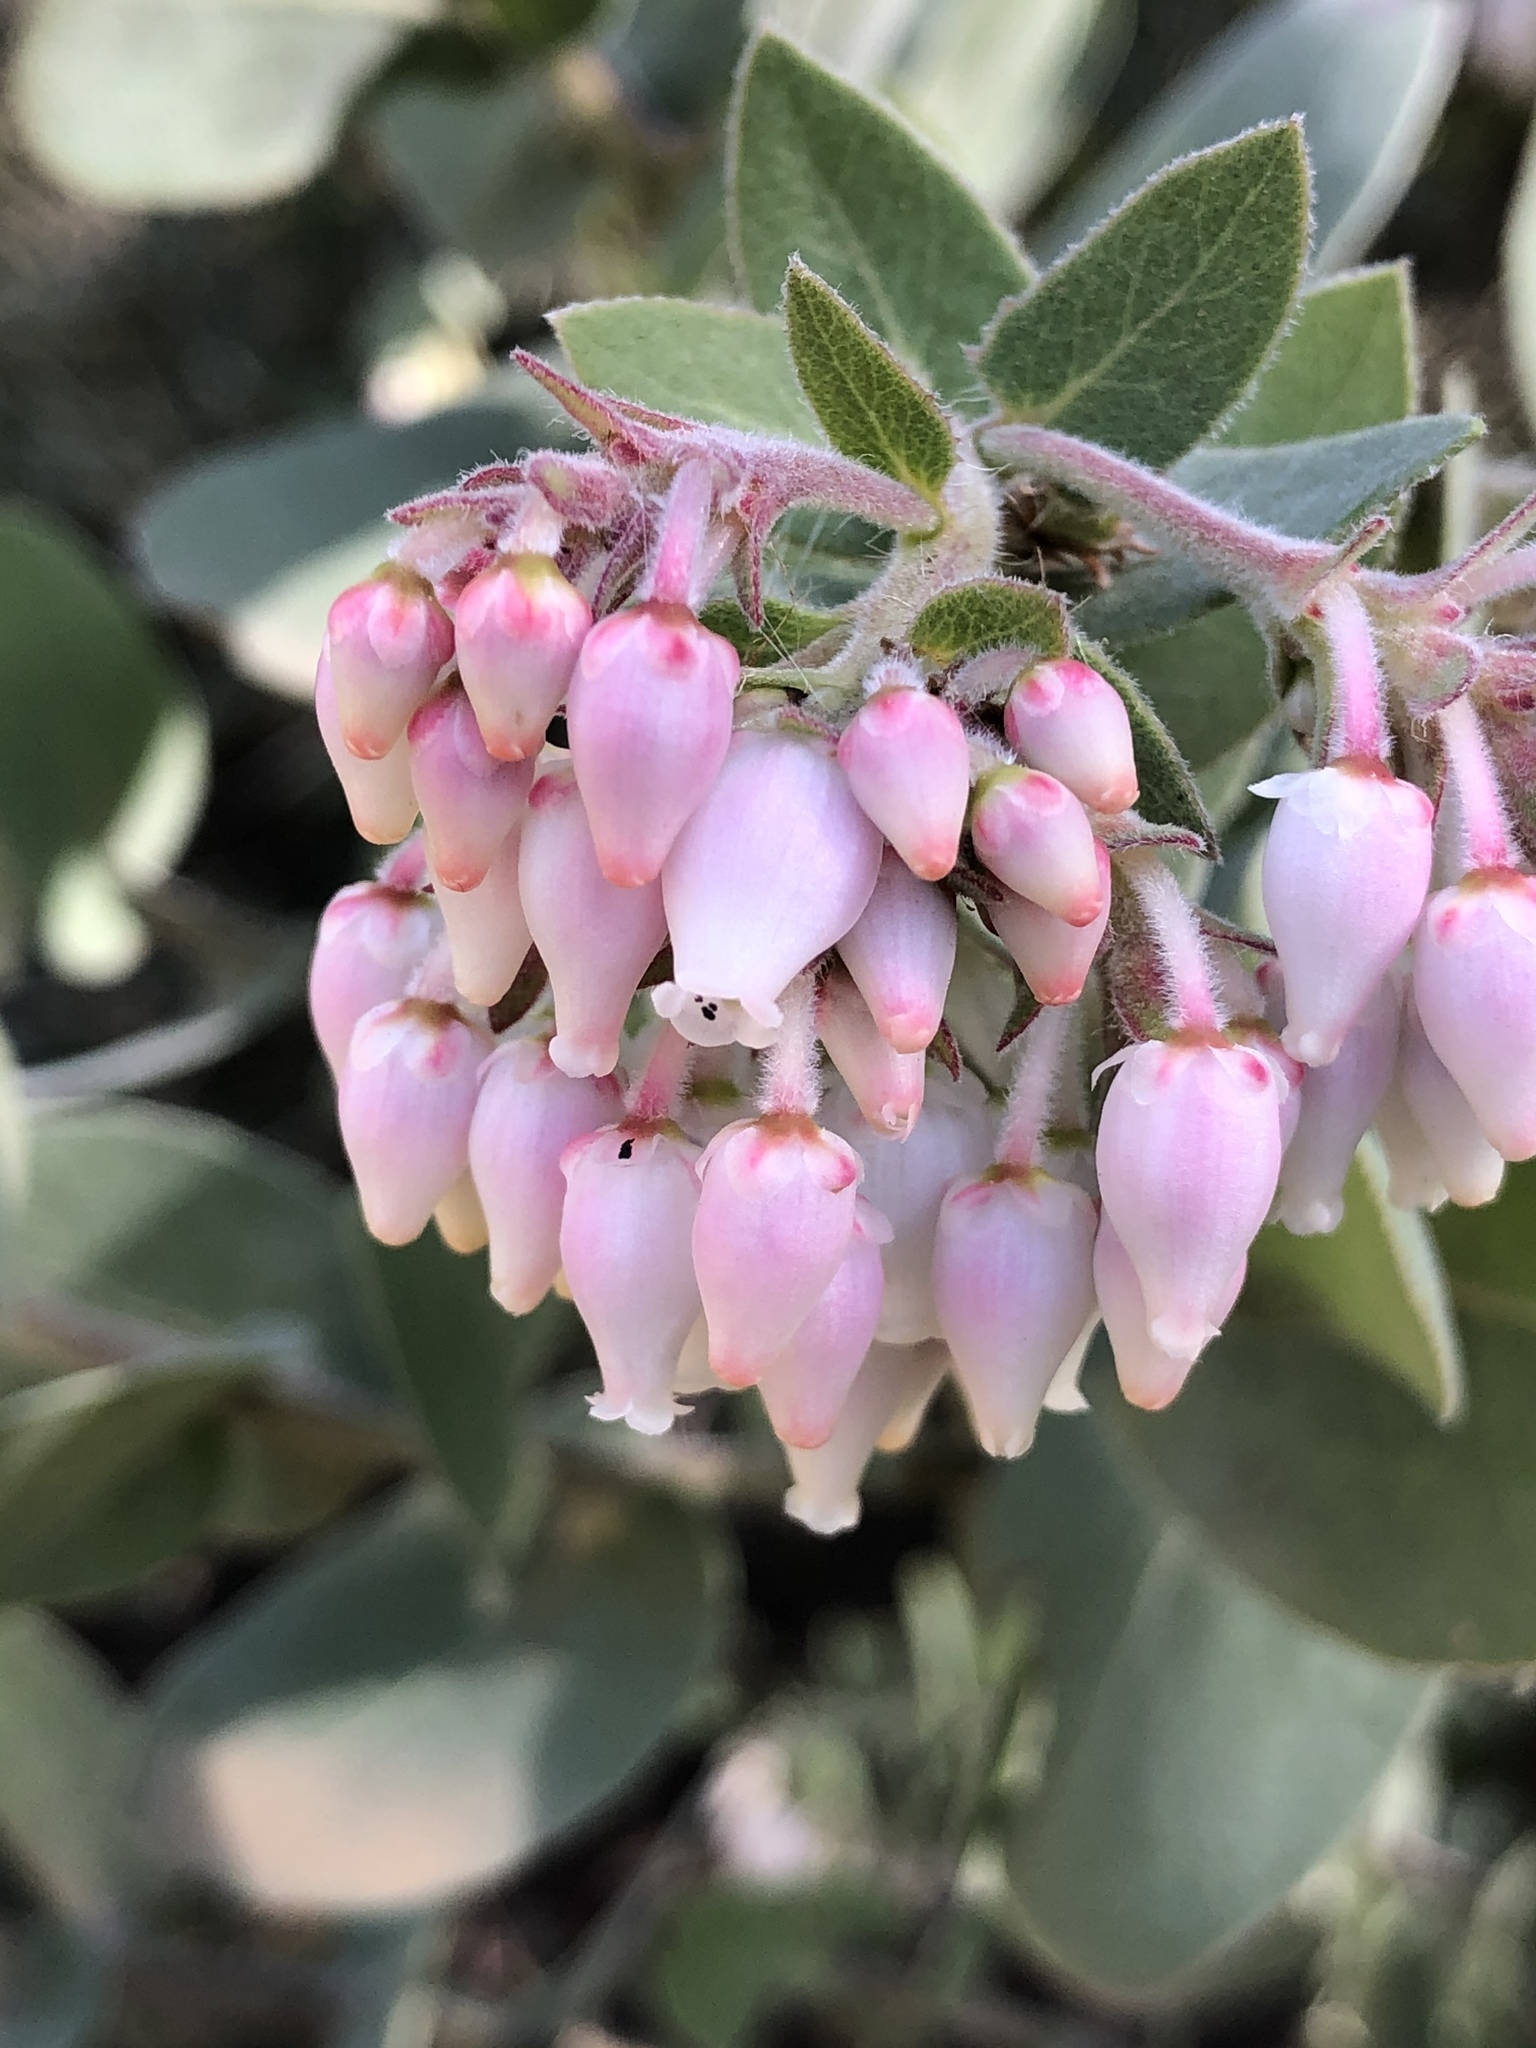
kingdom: Plantae
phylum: Tracheophyta
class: Magnoliopsida
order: Ericales
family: Ericaceae
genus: Arctostaphylos
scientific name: Arctostaphylos auriculata
